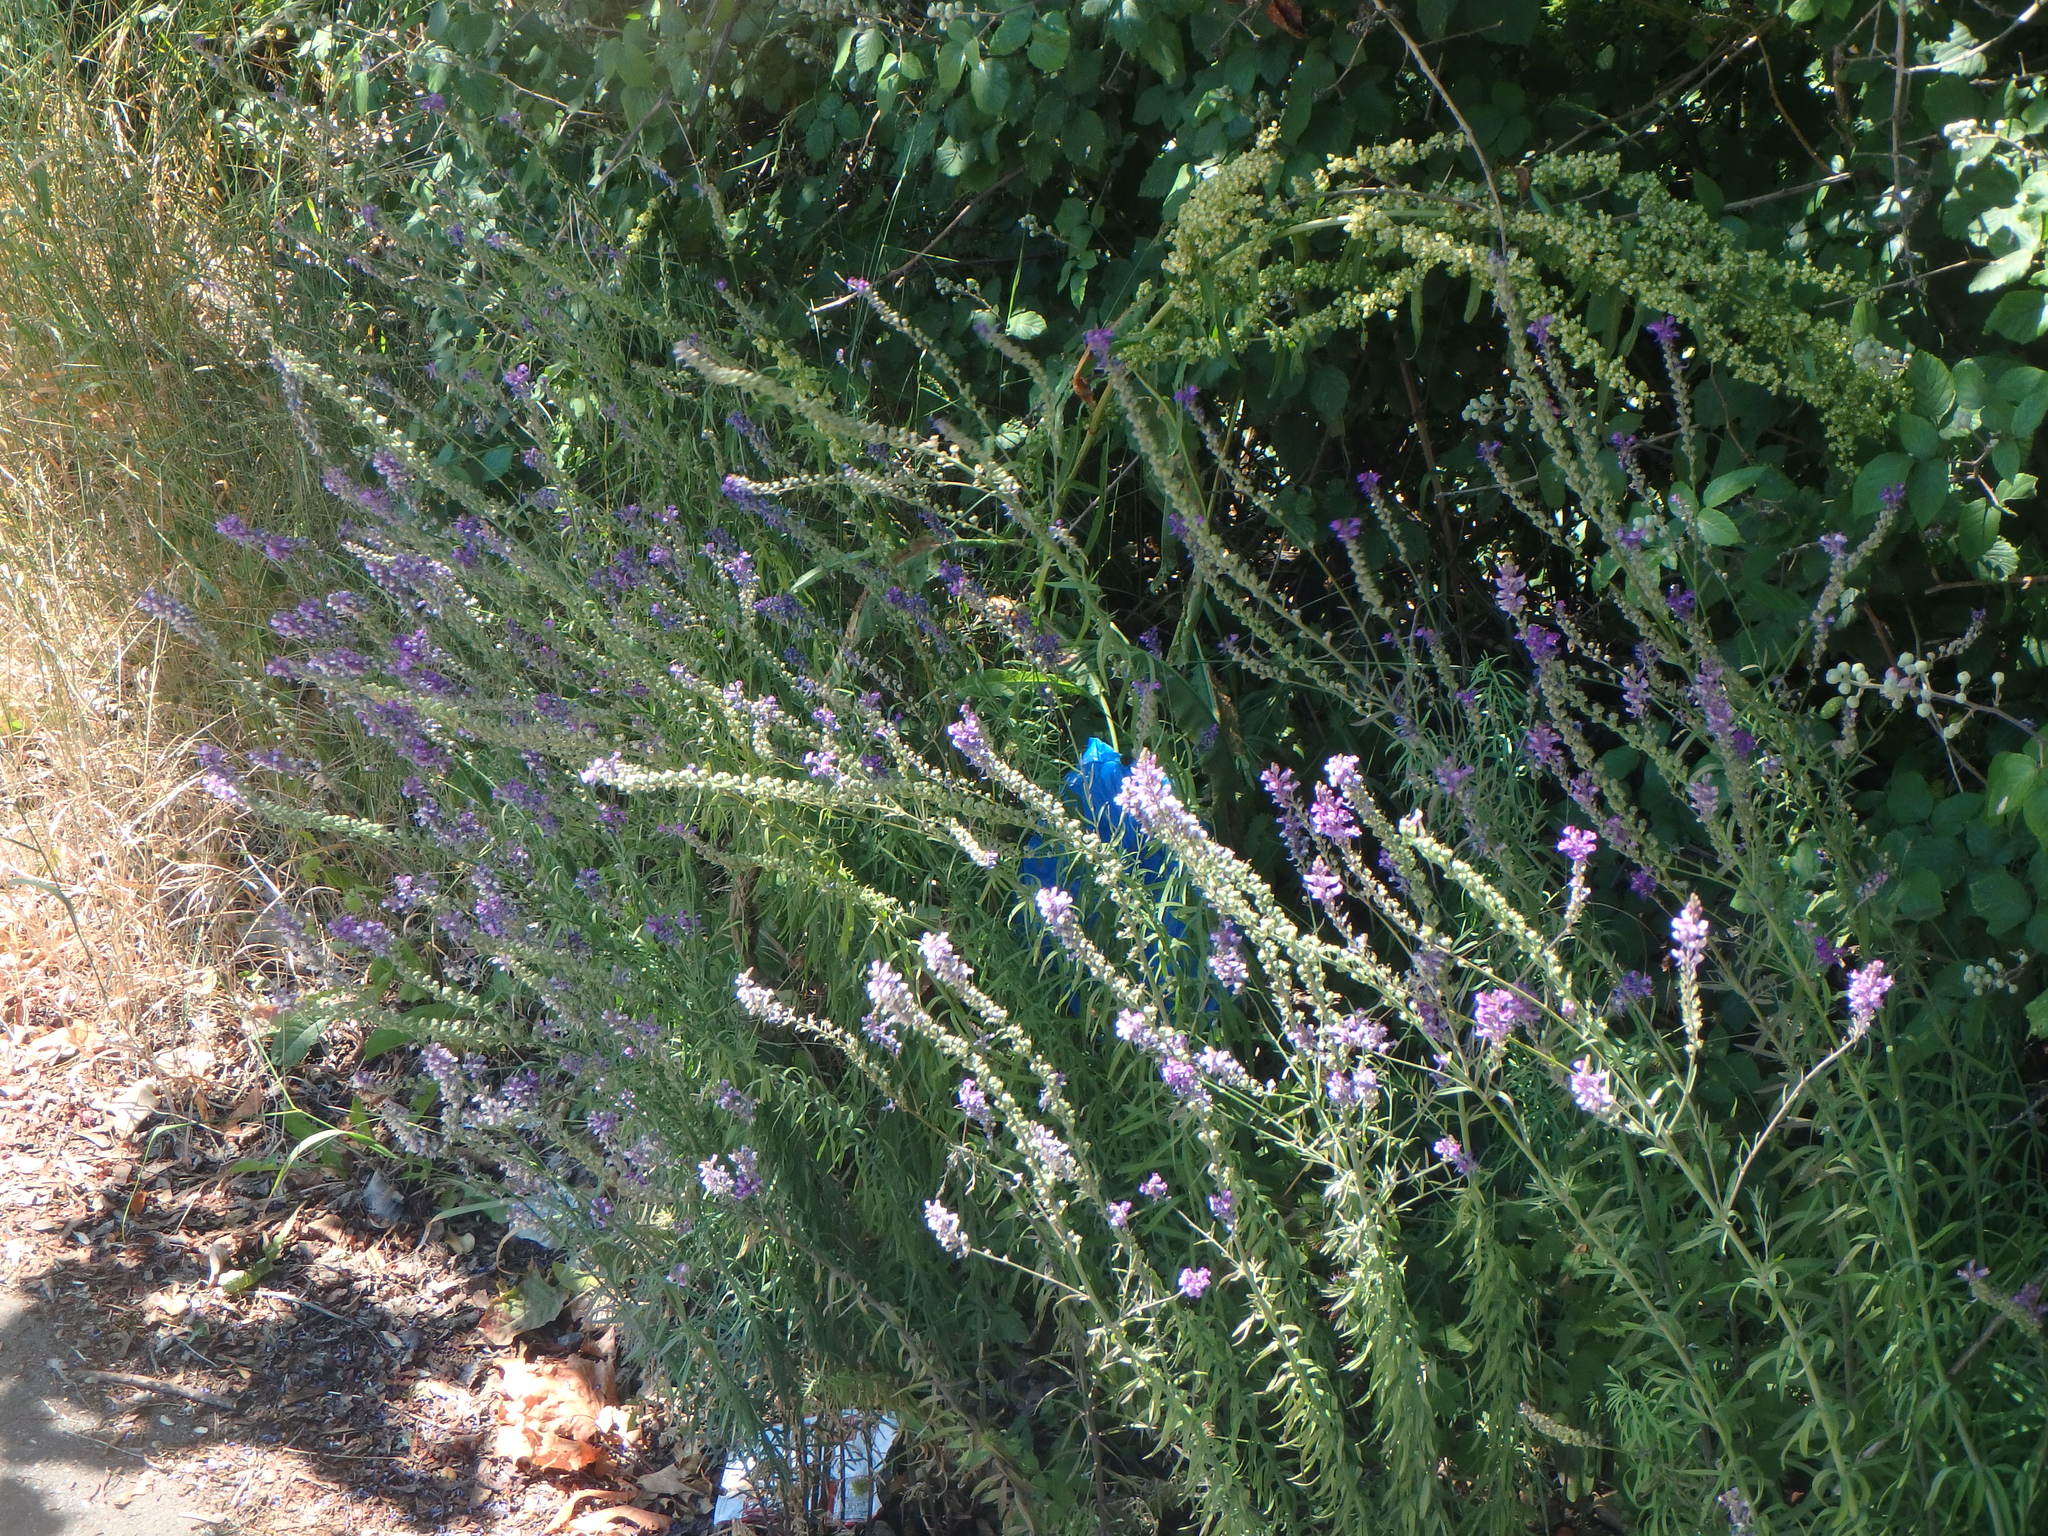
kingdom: Plantae
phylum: Tracheophyta
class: Magnoliopsida
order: Lamiales
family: Plantaginaceae
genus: Linaria
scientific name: Linaria purpurea
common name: Purple toadflax
